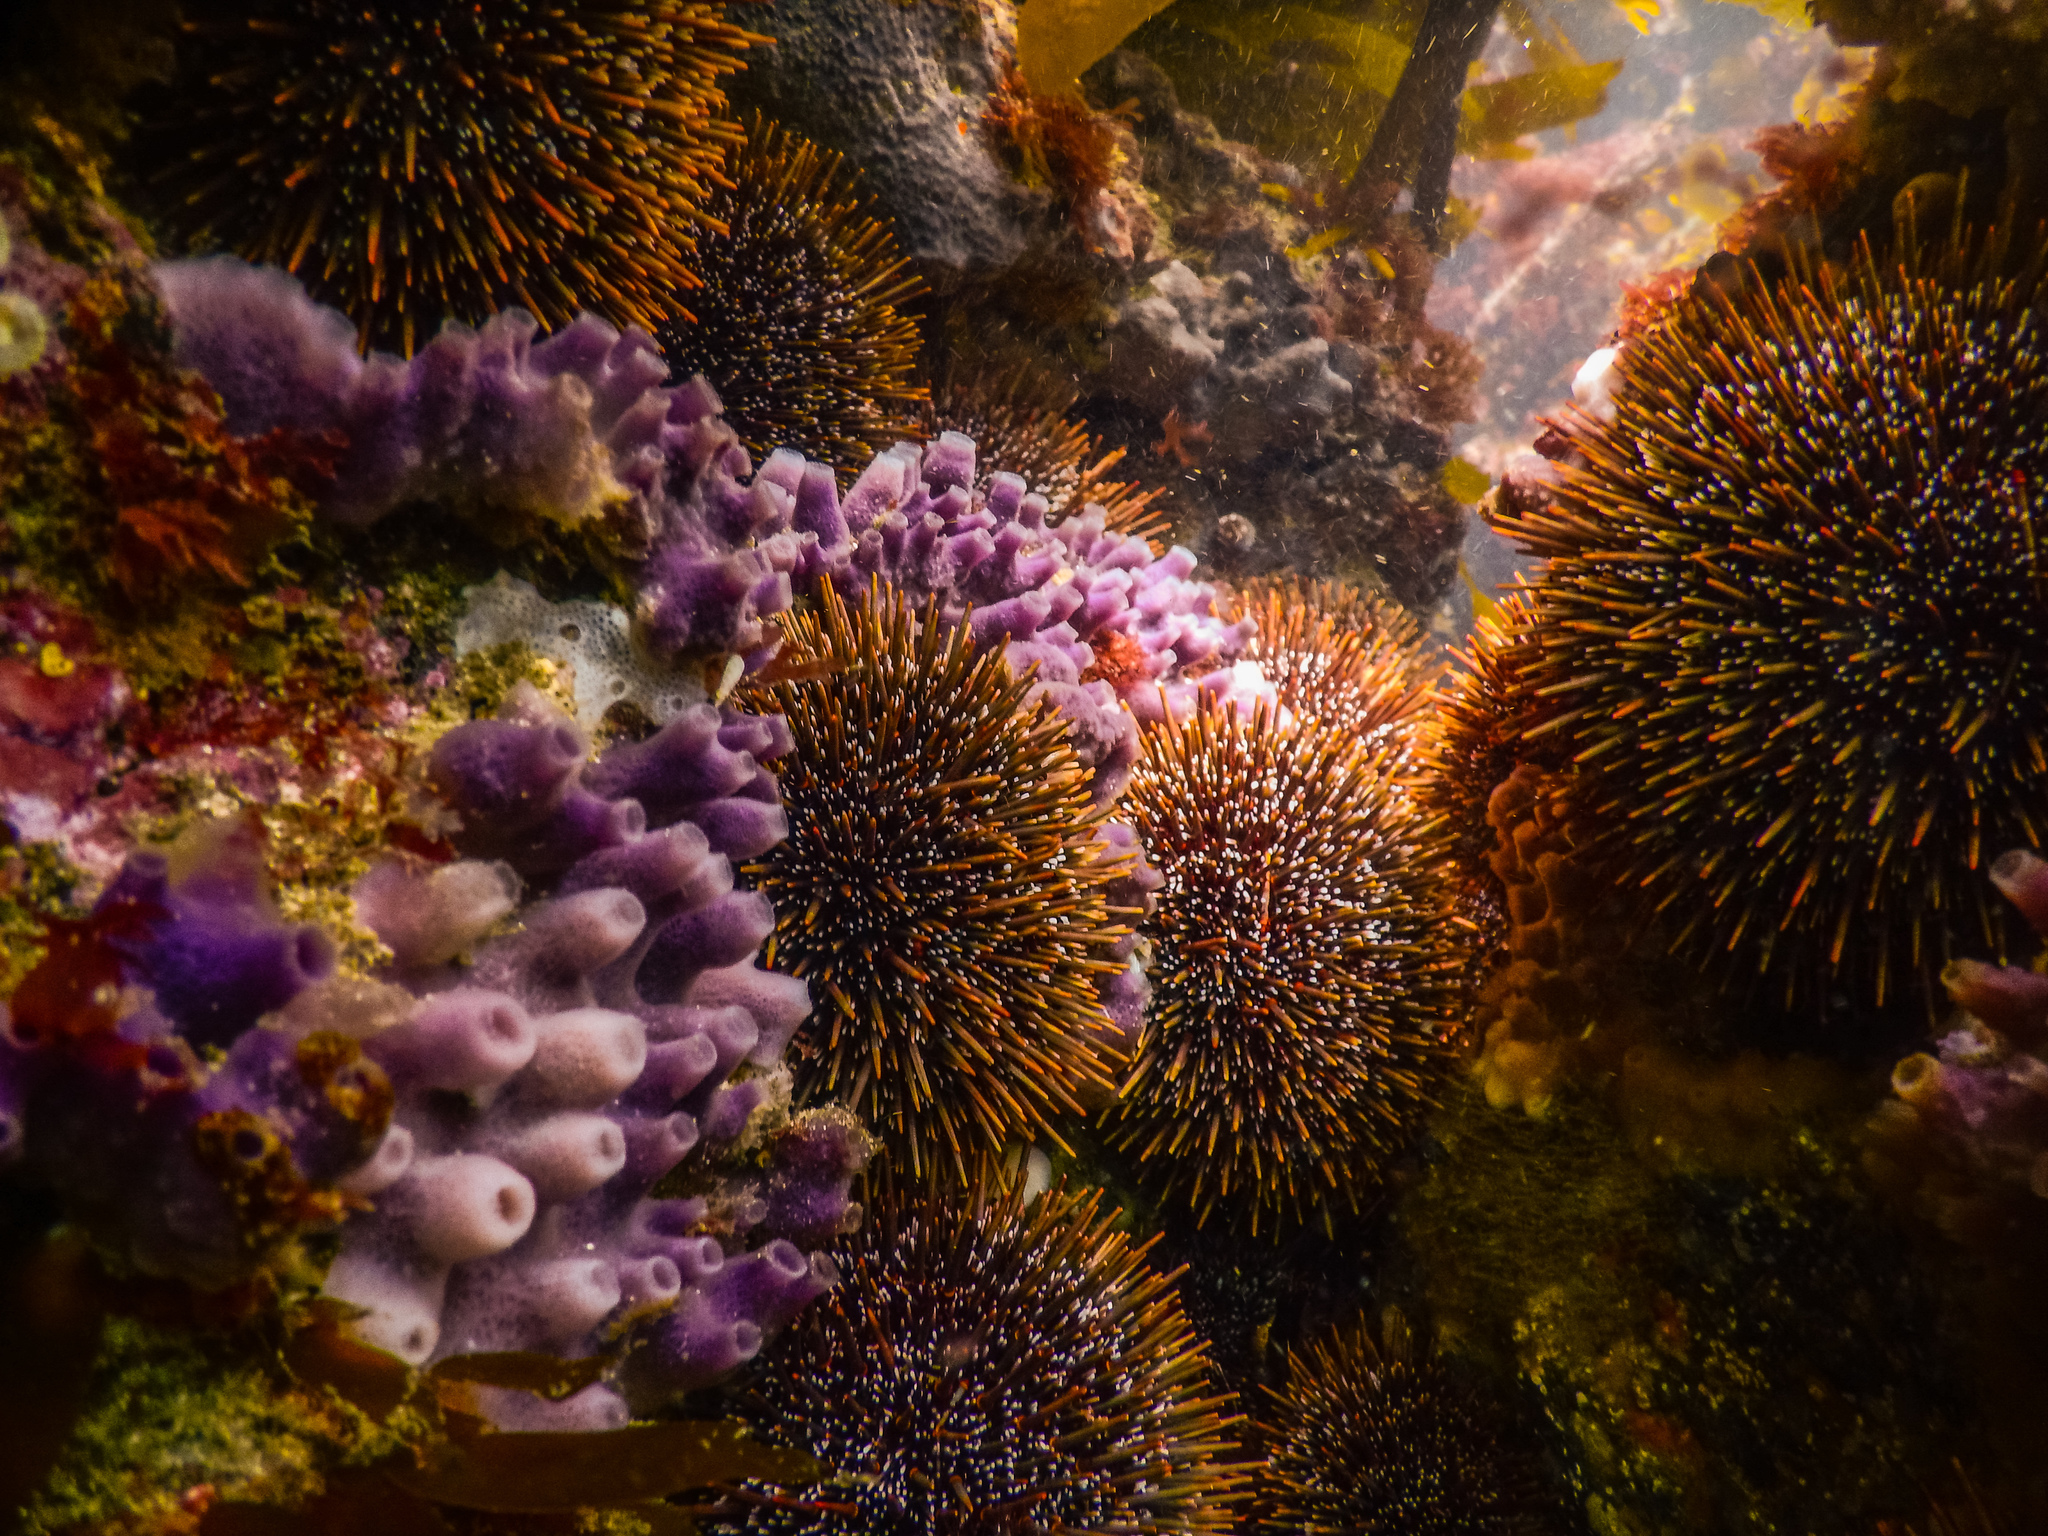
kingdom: Animalia
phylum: Echinodermata
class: Echinoidea
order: Camarodonta
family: Echinometridae
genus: Evechinus
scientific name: Evechinus chloroticus
